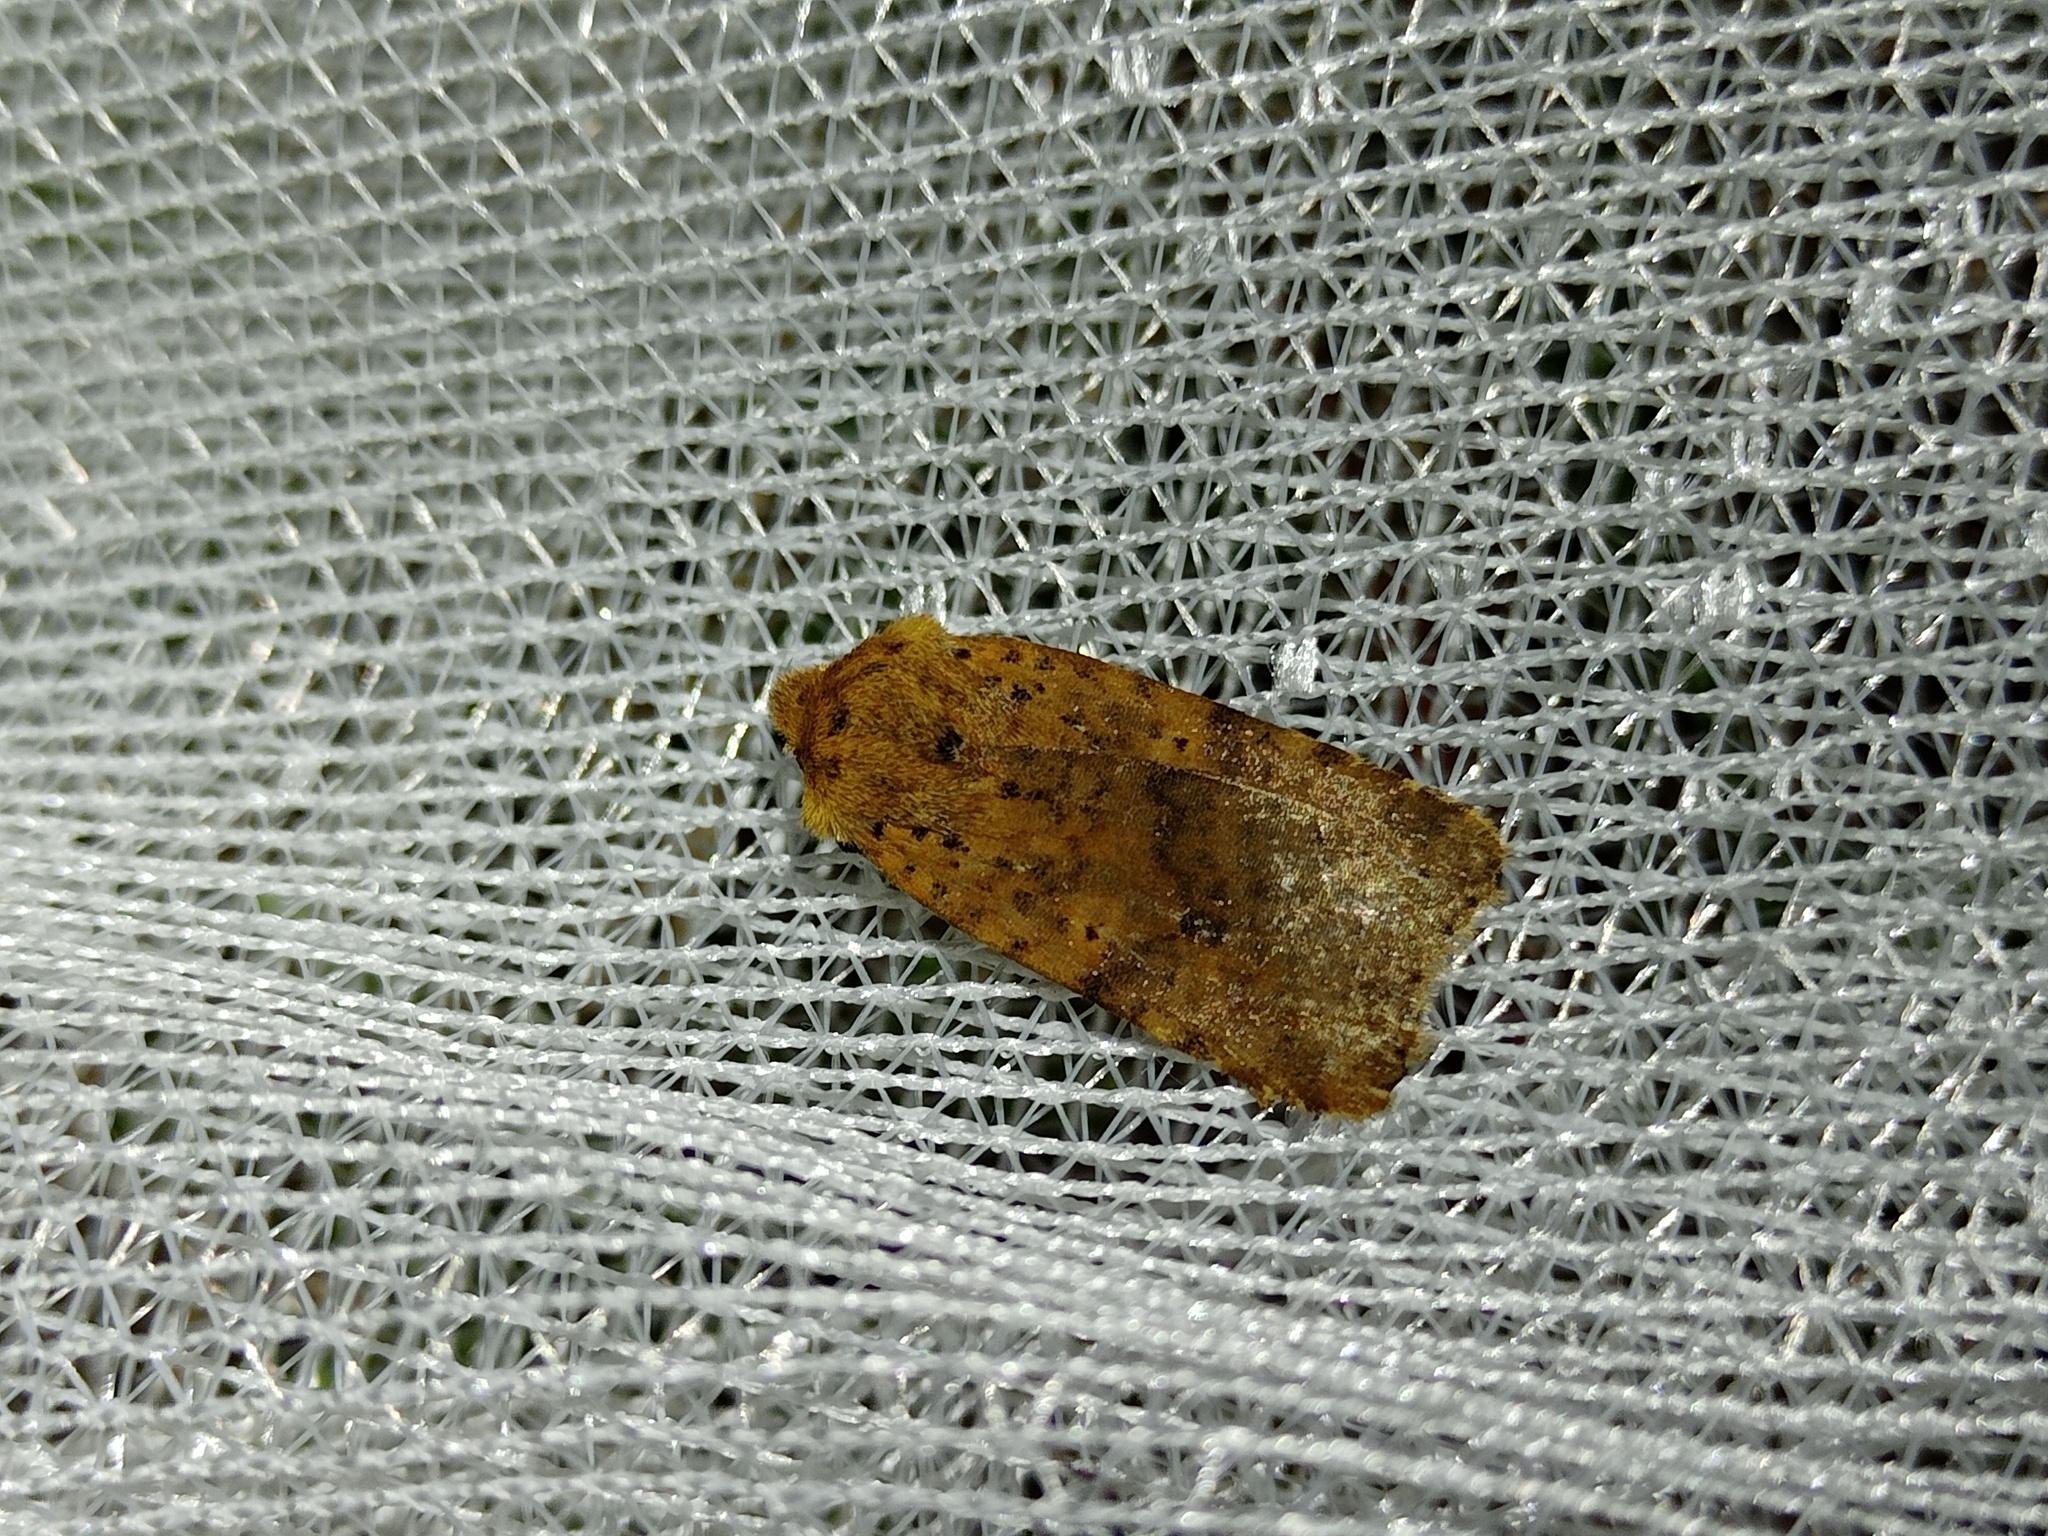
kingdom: Animalia
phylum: Arthropoda
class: Insecta
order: Lepidoptera
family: Noctuidae
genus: Conistra
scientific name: Conistra rubiginea
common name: Dotted chestnut
